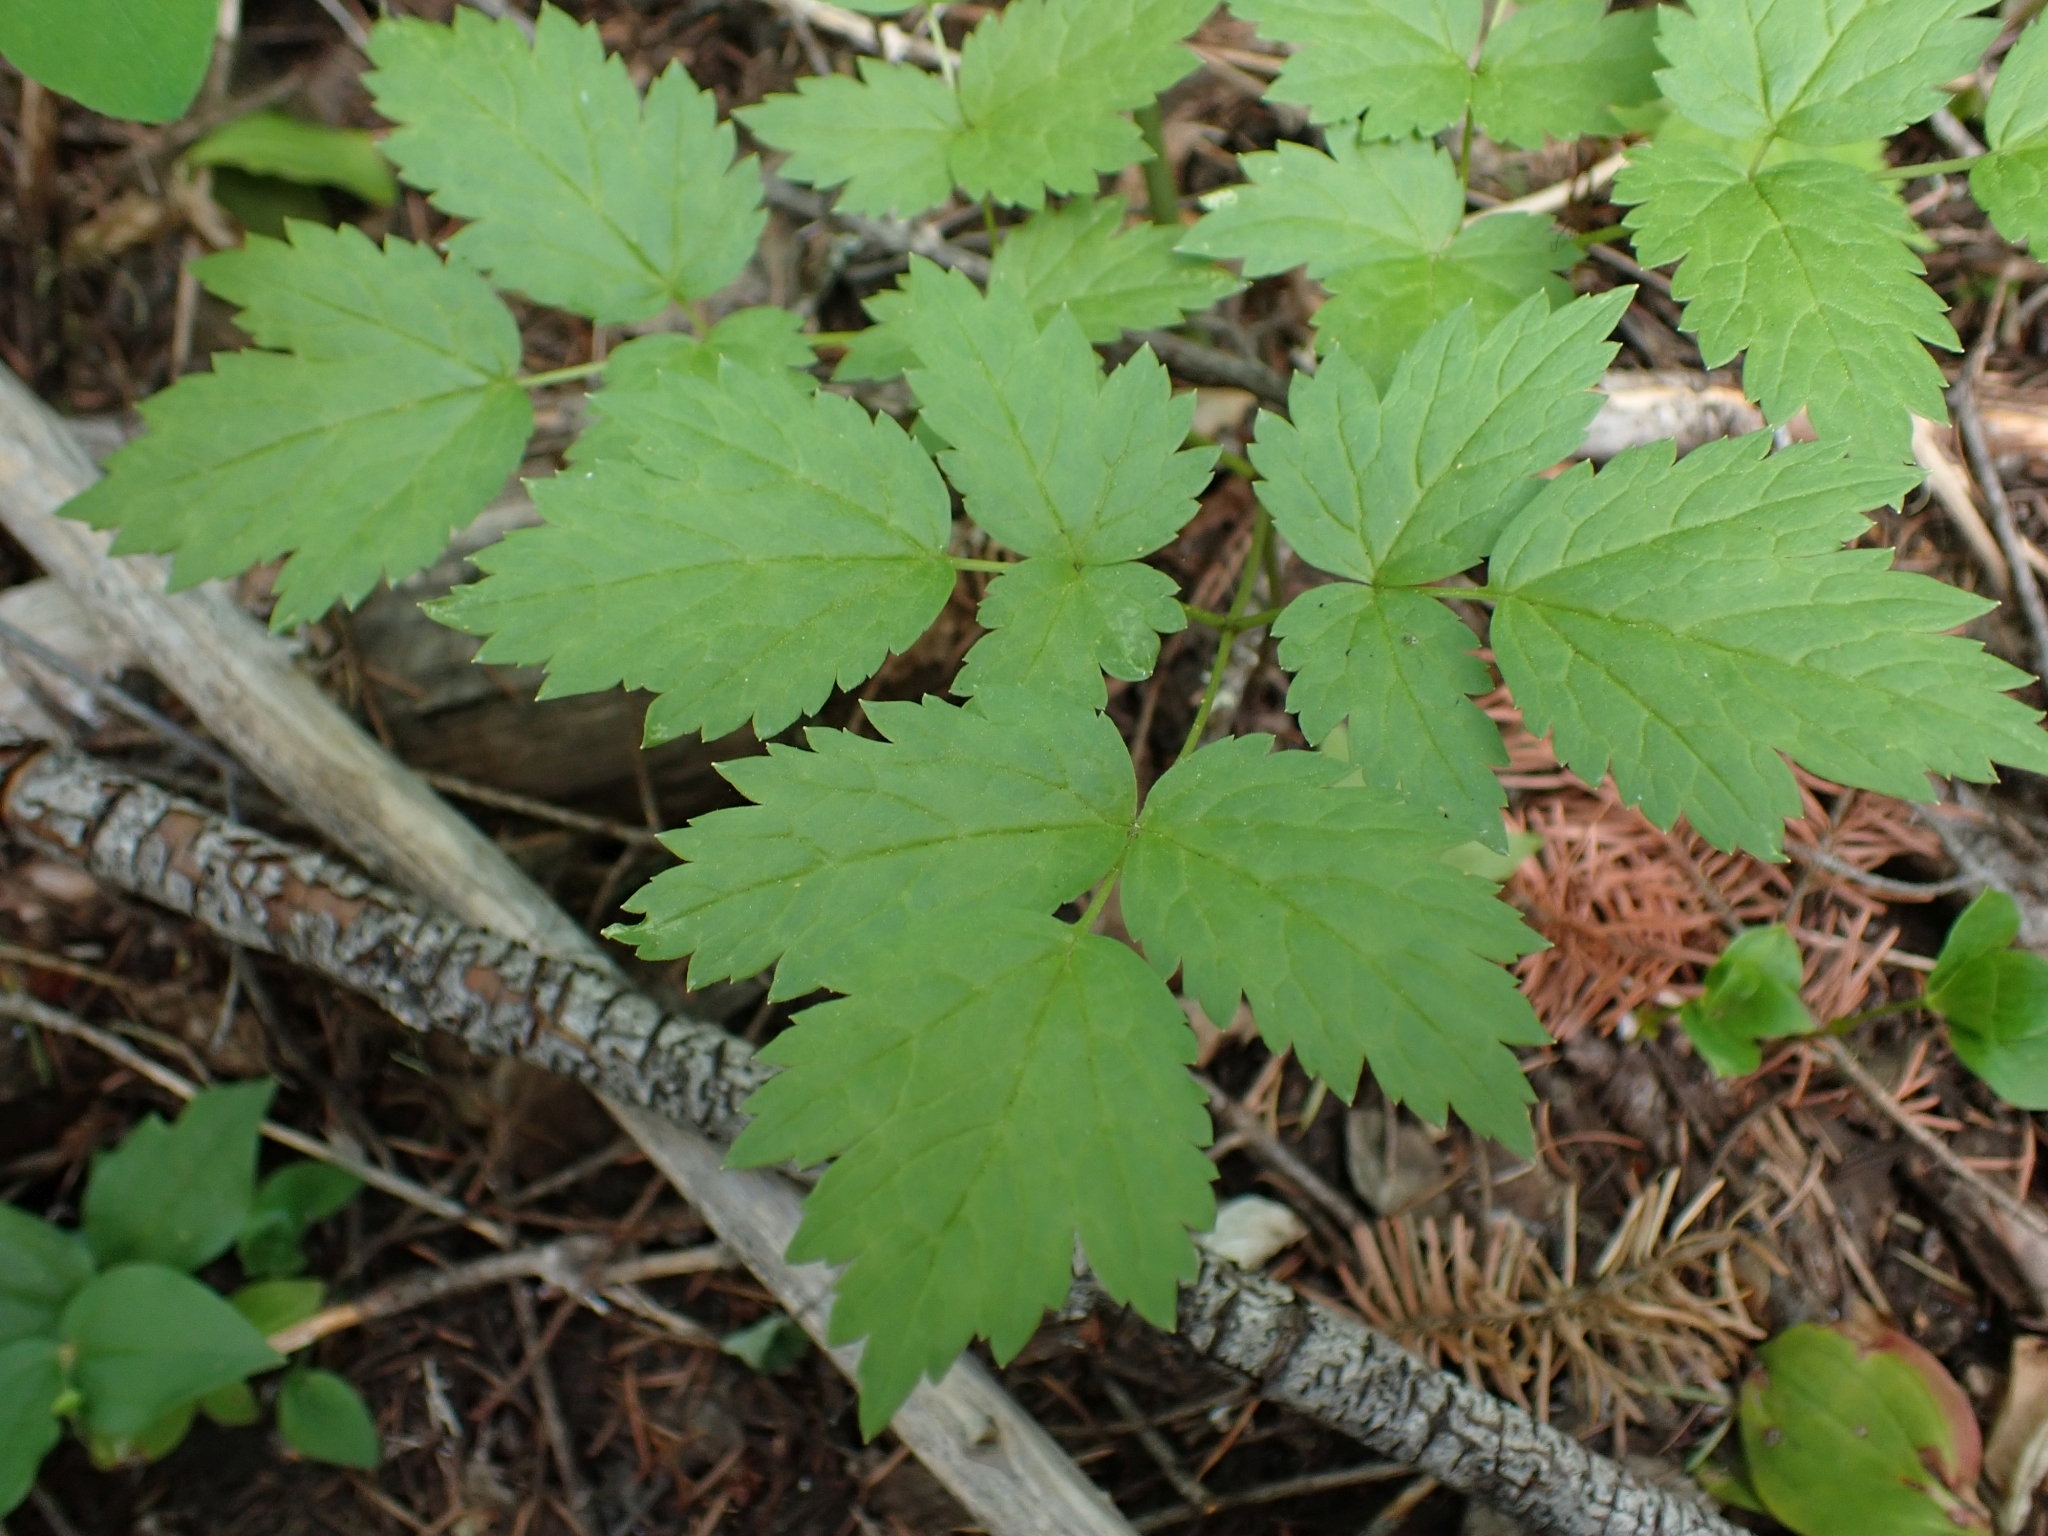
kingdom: Plantae
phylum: Tracheophyta
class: Magnoliopsida
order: Ranunculales
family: Ranunculaceae
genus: Actaea
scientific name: Actaea rubra
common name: Red baneberry
